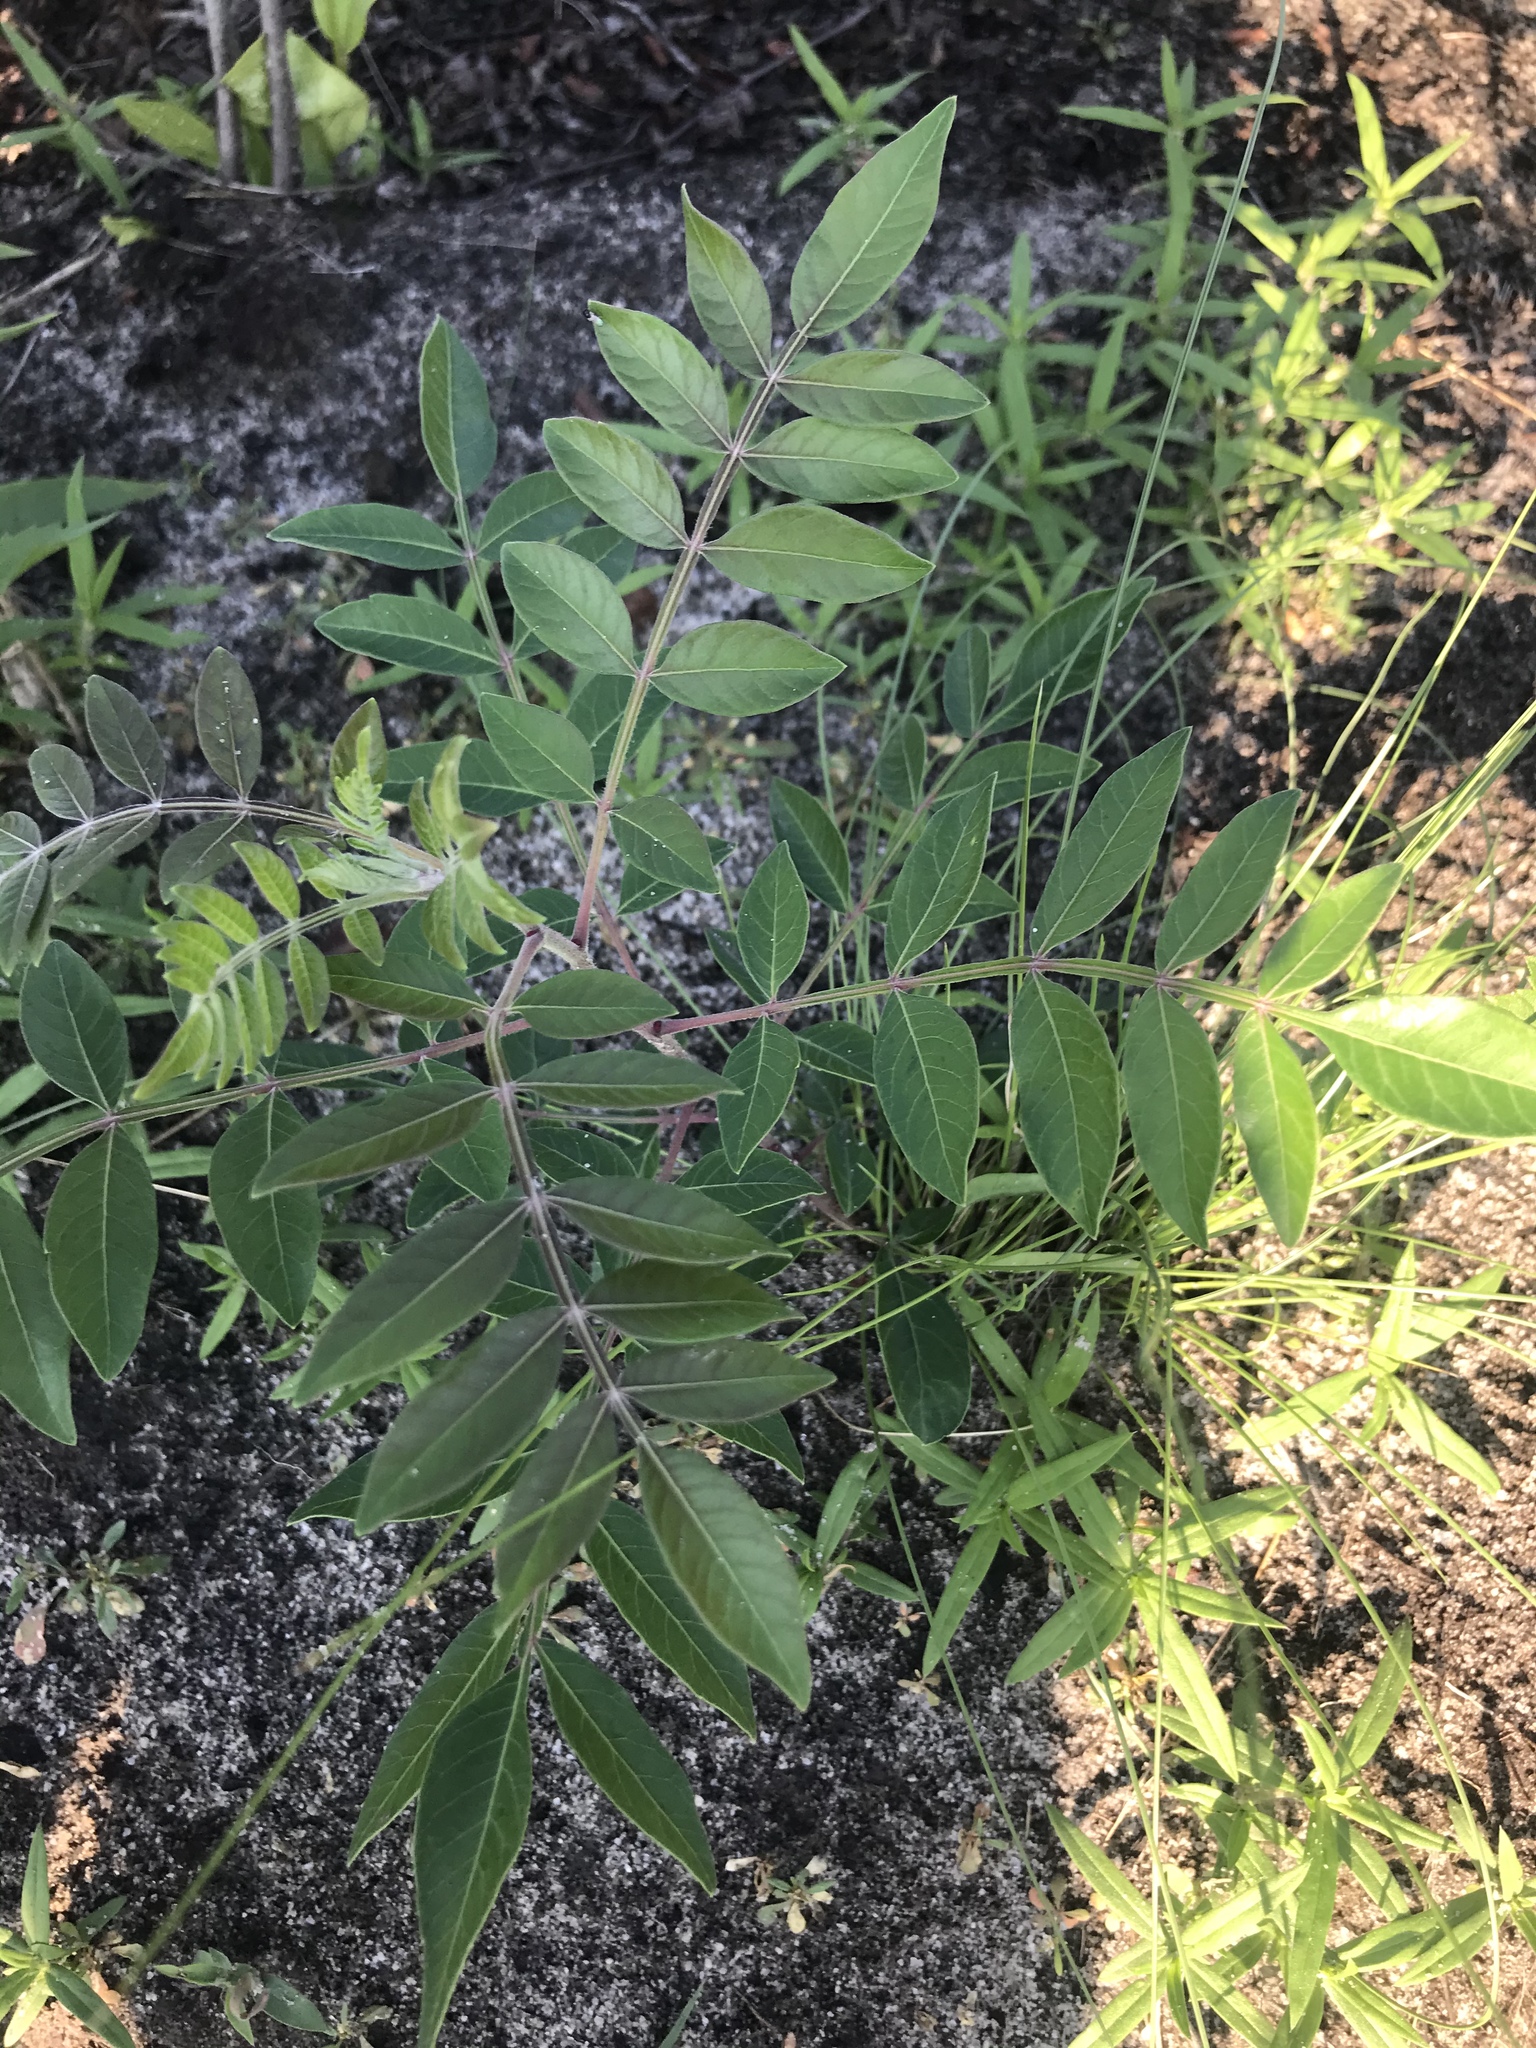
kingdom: Plantae
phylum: Tracheophyta
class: Magnoliopsida
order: Sapindales
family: Anacardiaceae
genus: Rhus
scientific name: Rhus copallina
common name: Shining sumac
